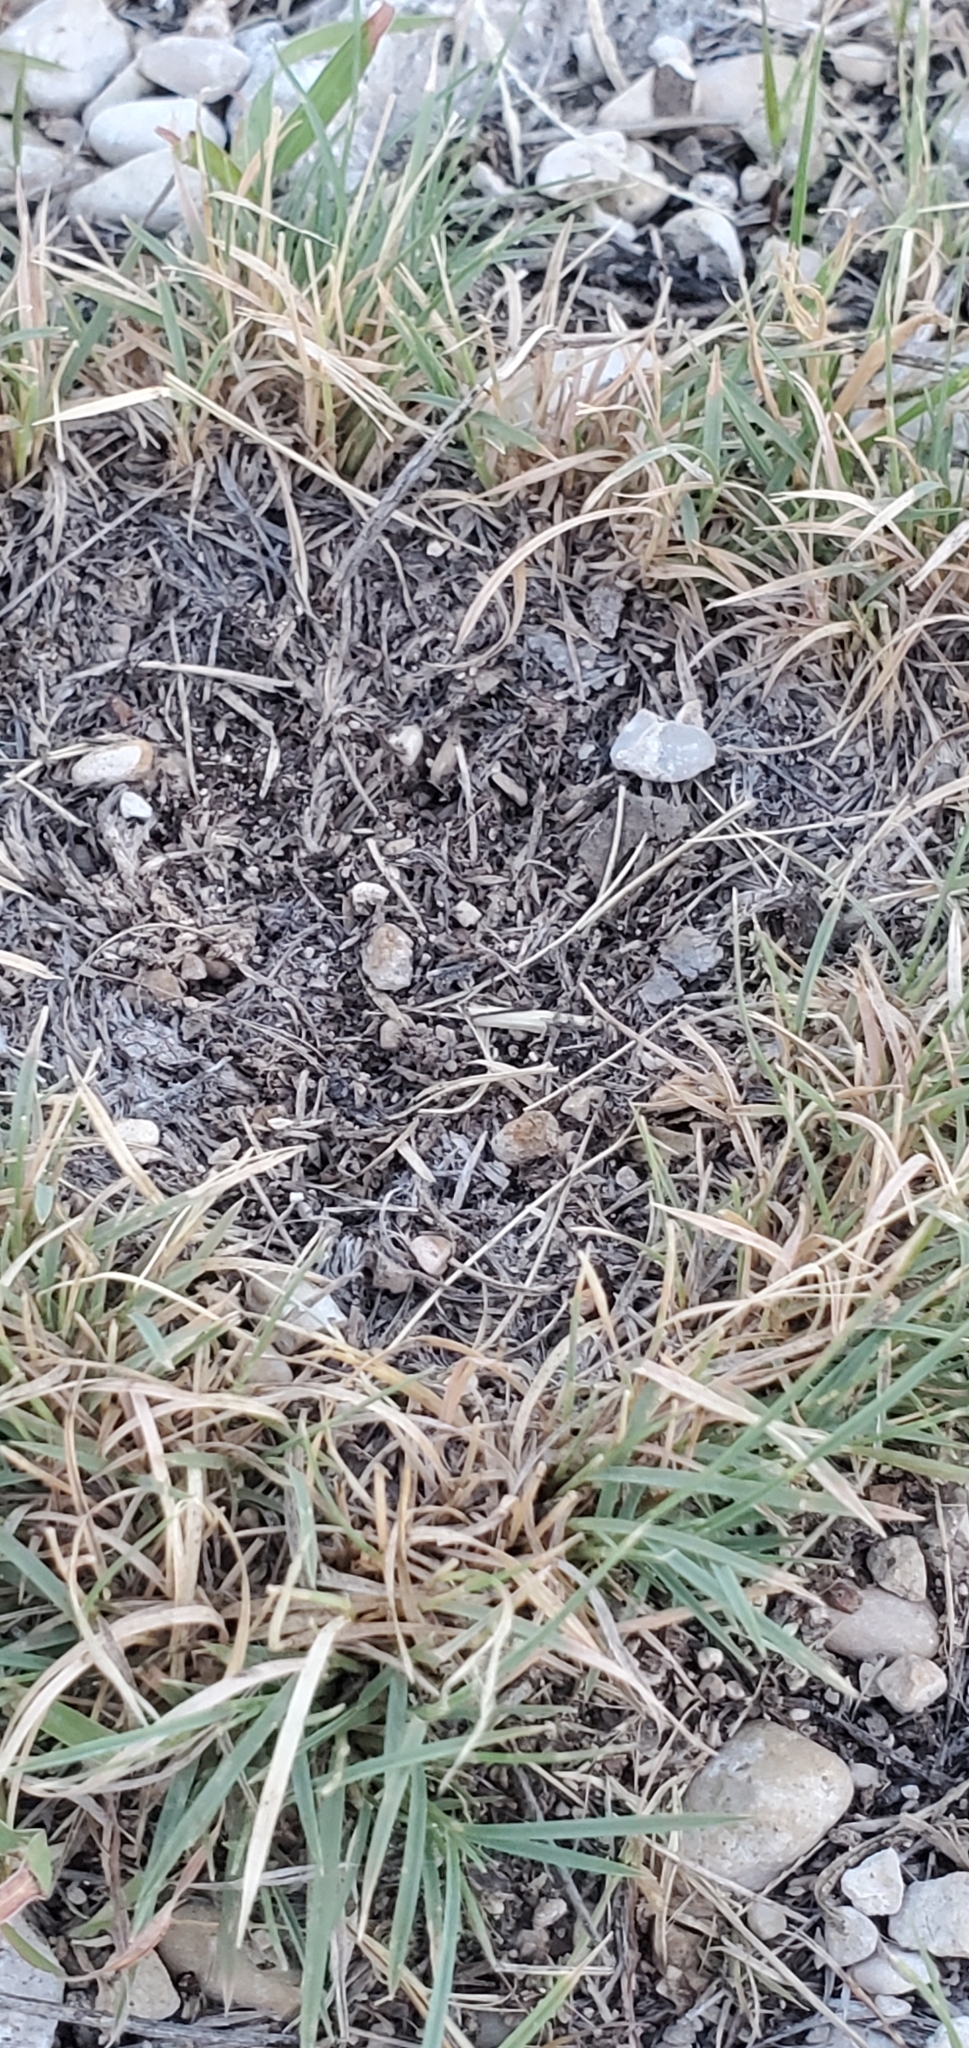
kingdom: Plantae
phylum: Tracheophyta
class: Liliopsida
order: Poales
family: Poaceae
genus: Erioneuron
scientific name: Erioneuron pilosum
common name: Hairy woolly grass
